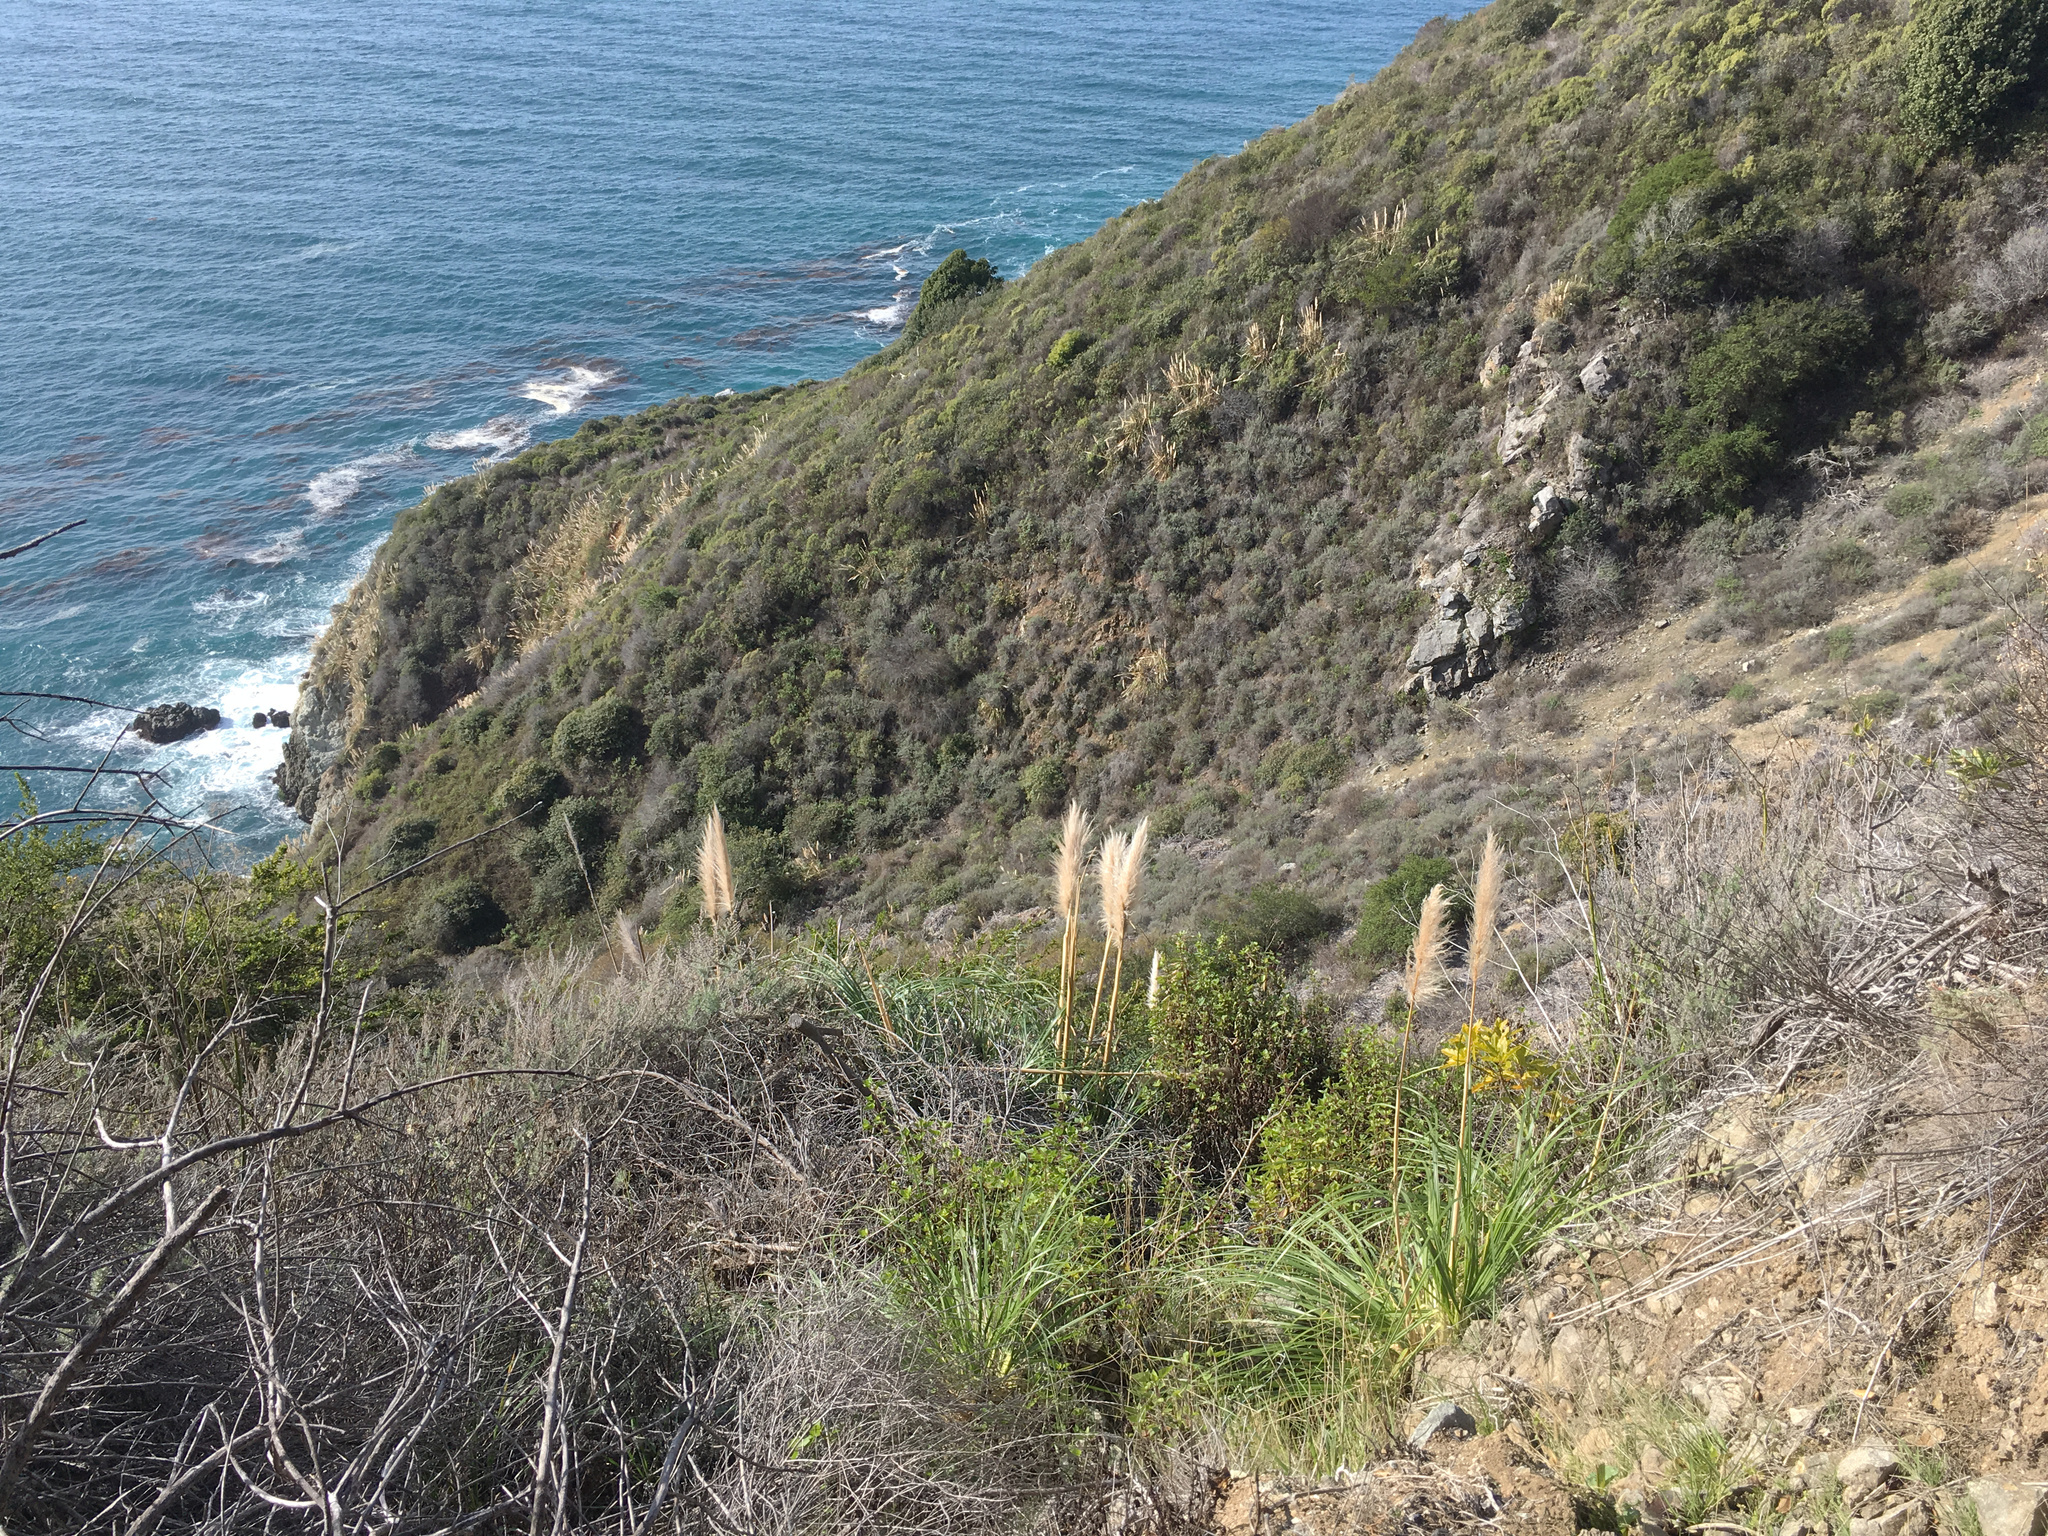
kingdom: Plantae
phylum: Tracheophyta
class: Liliopsida
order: Poales
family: Poaceae
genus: Cortaderia
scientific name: Cortaderia selloana
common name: Uruguayan pampas grass
